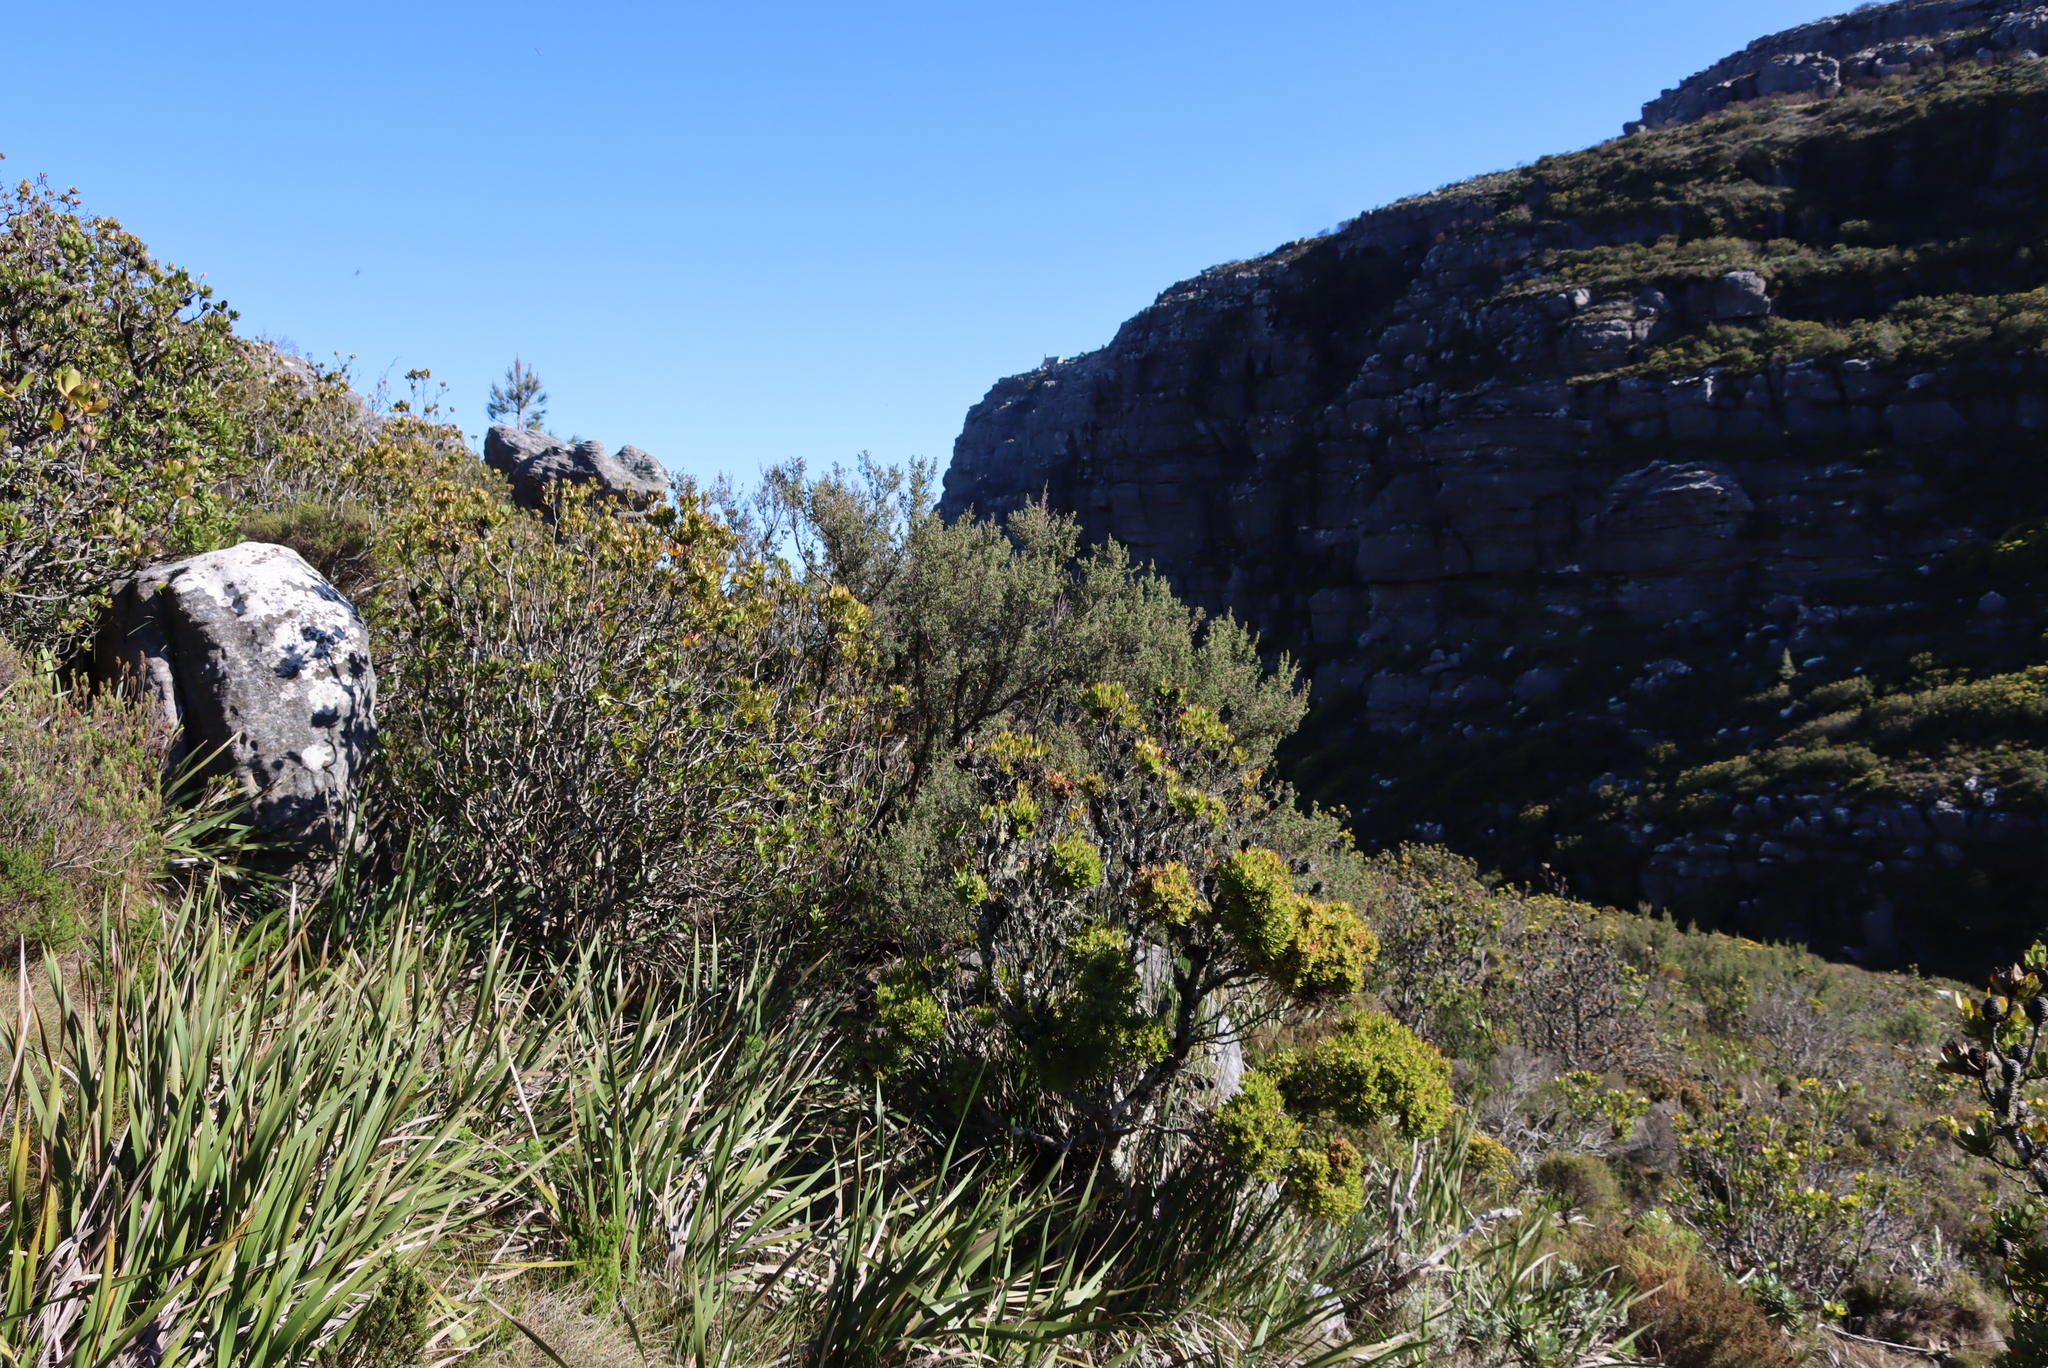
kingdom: Plantae
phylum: Tracheophyta
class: Magnoliopsida
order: Proteales
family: Proteaceae
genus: Leucadendron
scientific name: Leucadendron strobilinum
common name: Mountain rose
